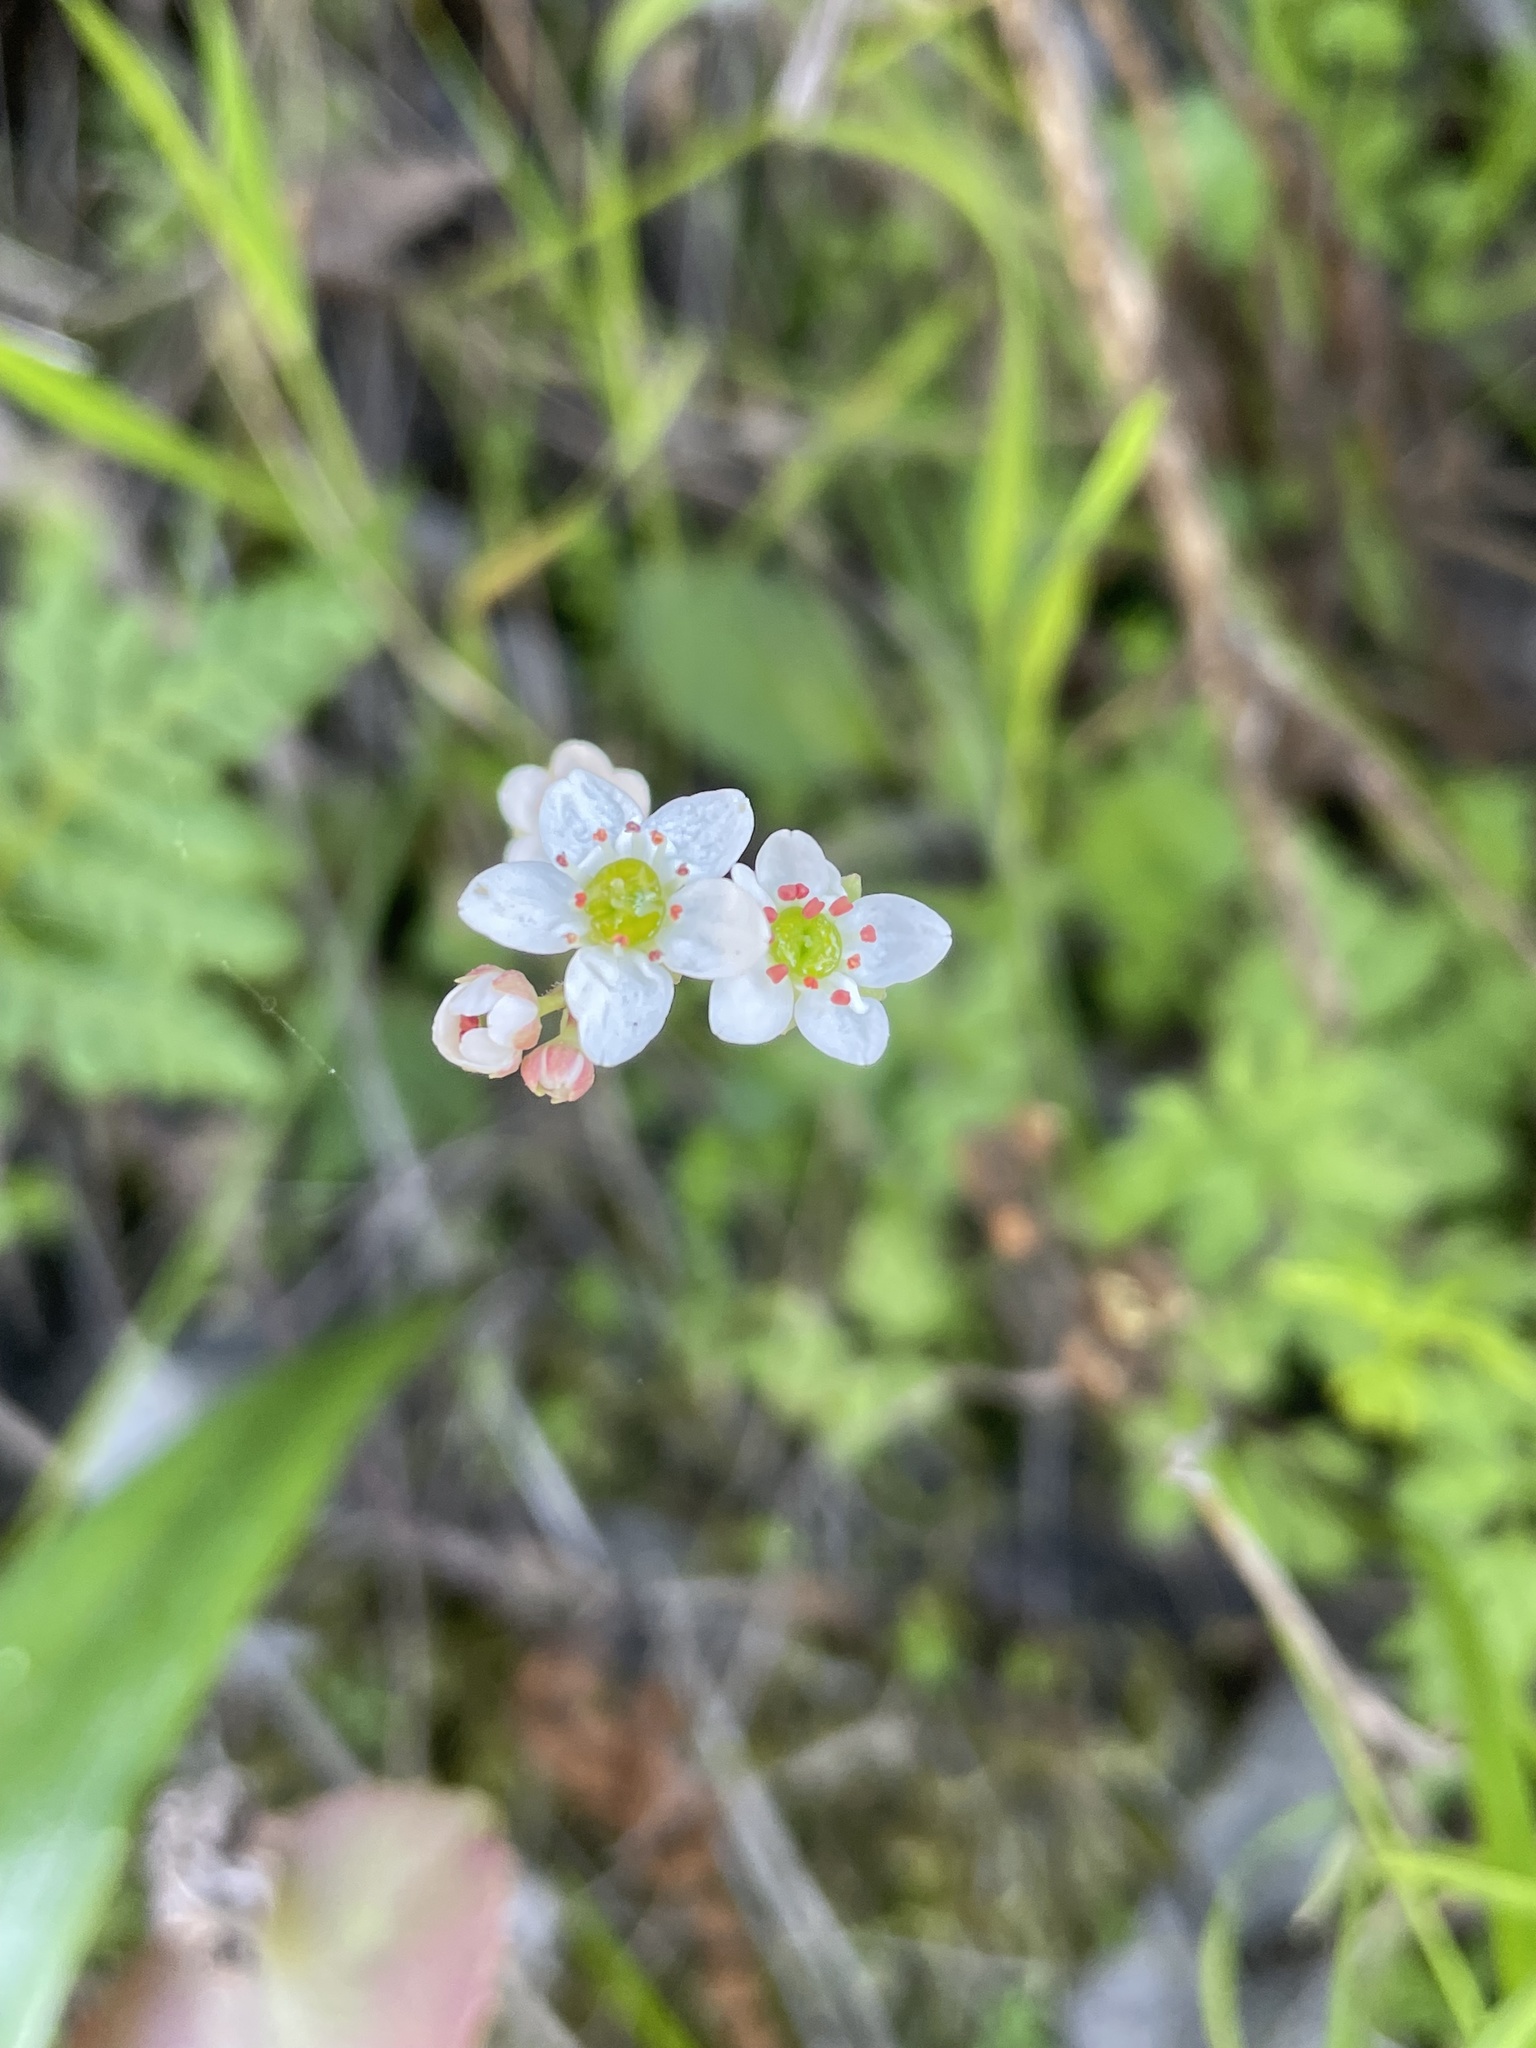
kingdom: Plantae
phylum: Tracheophyta
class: Magnoliopsida
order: Saxifragales
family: Saxifragaceae
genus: Micranthes
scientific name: Micranthes californica
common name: California saxifrage
